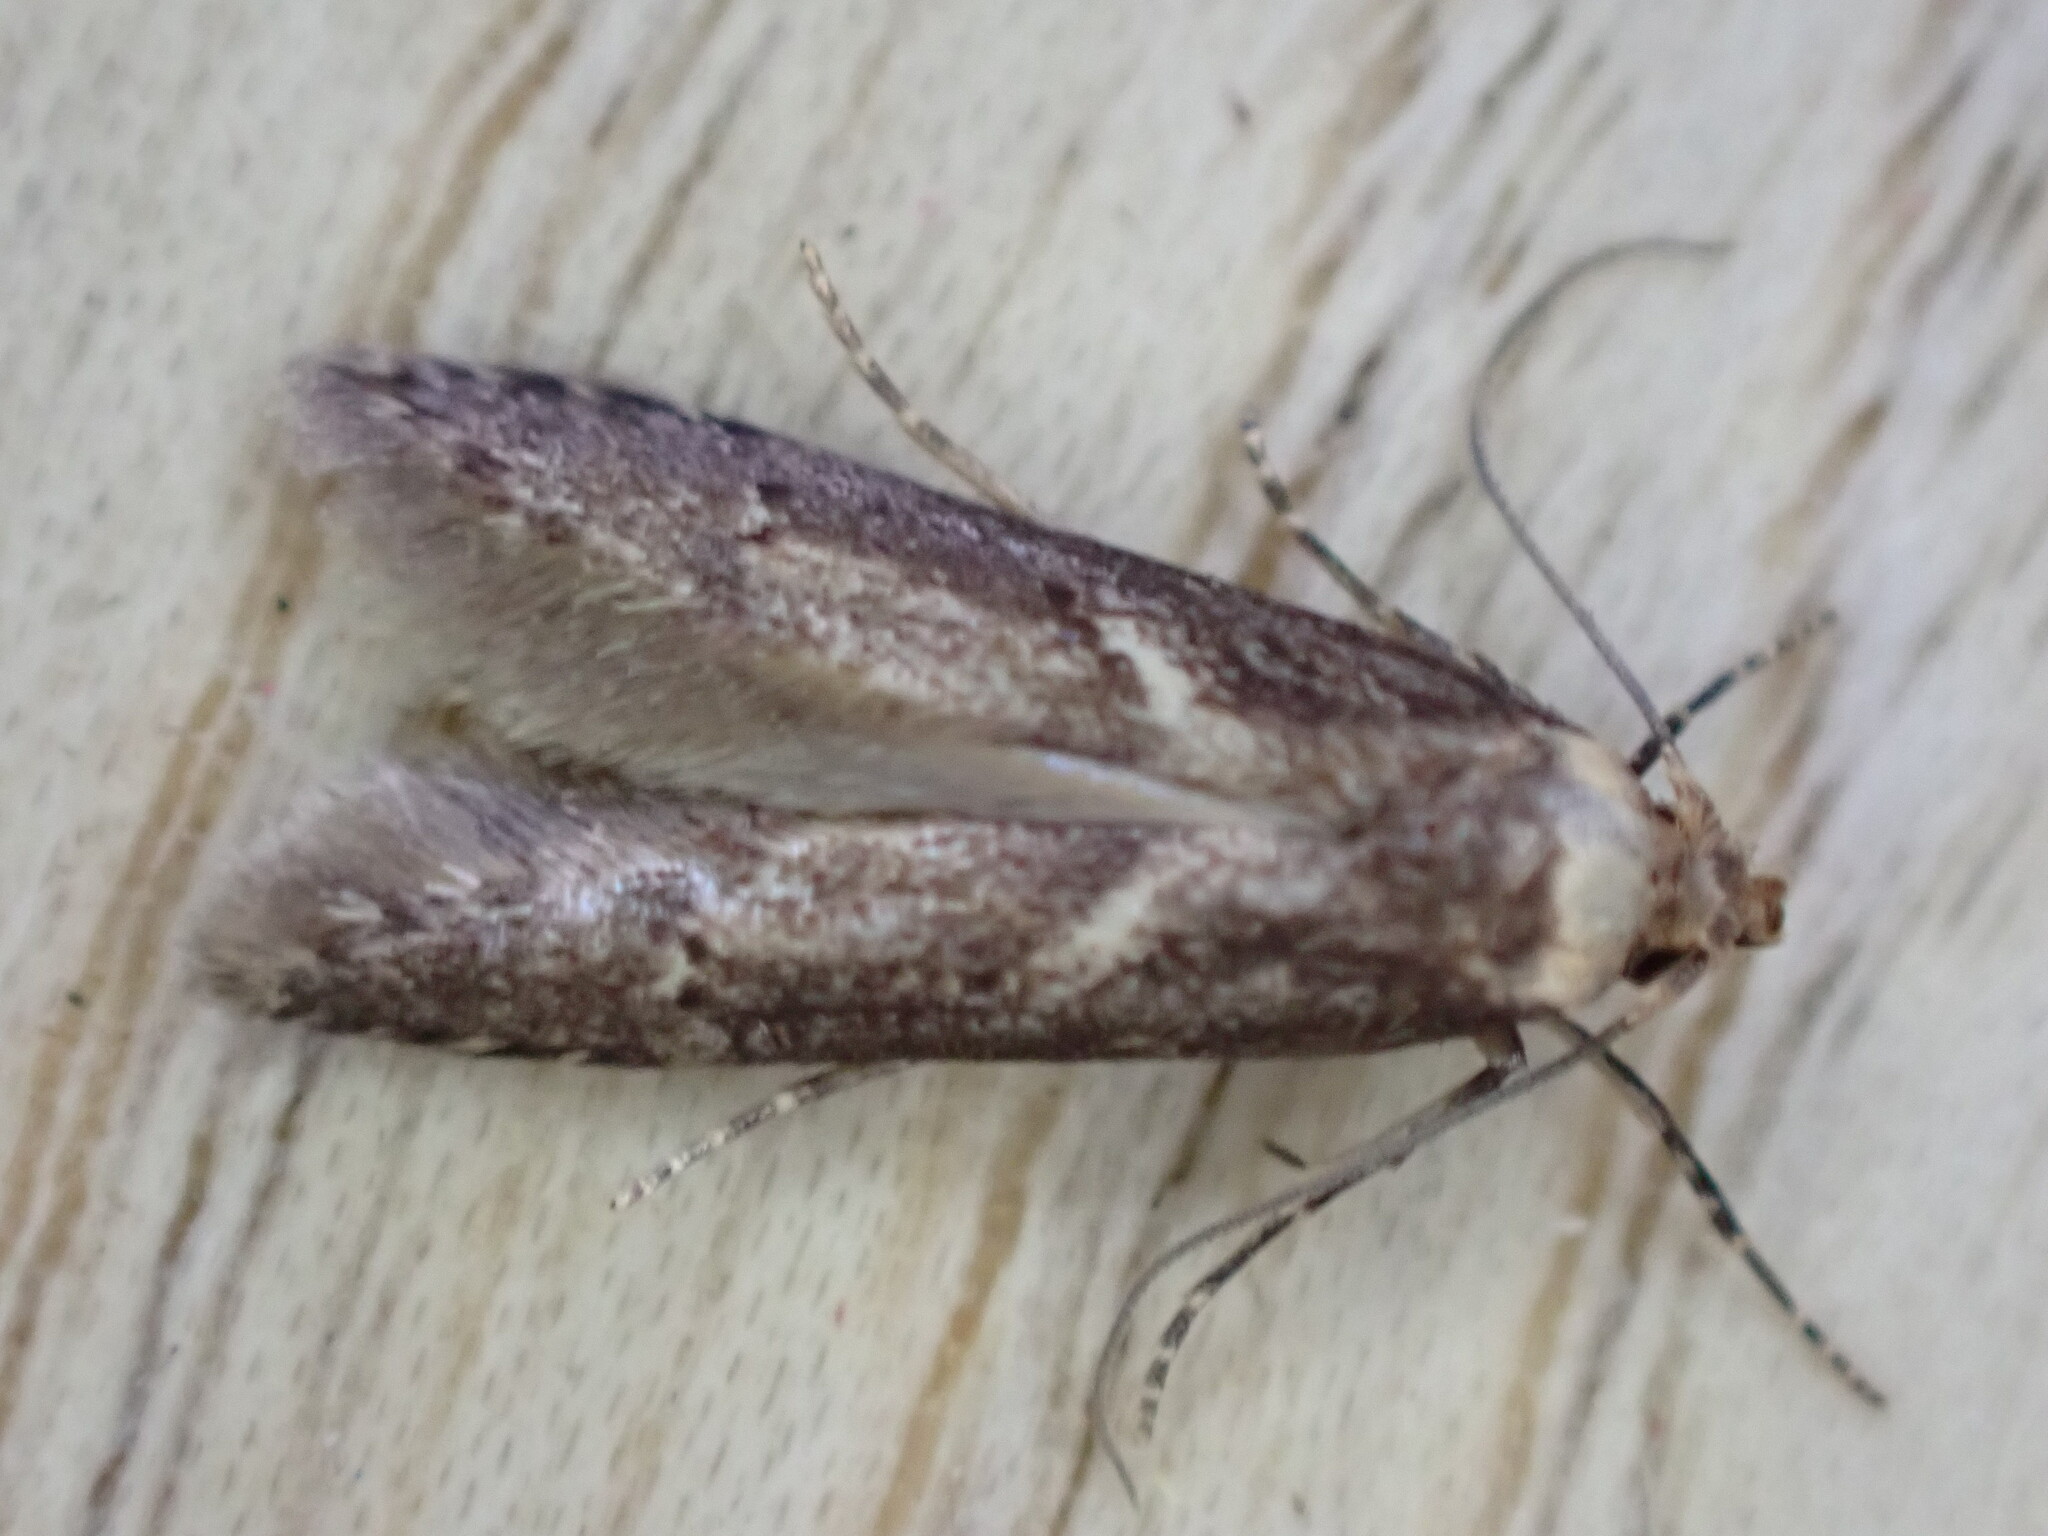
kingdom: Animalia
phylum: Arthropoda
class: Insecta
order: Lepidoptera
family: Blastobasidae
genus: Blastobasis
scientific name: Blastobasis adustella
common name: Dingy dowd
